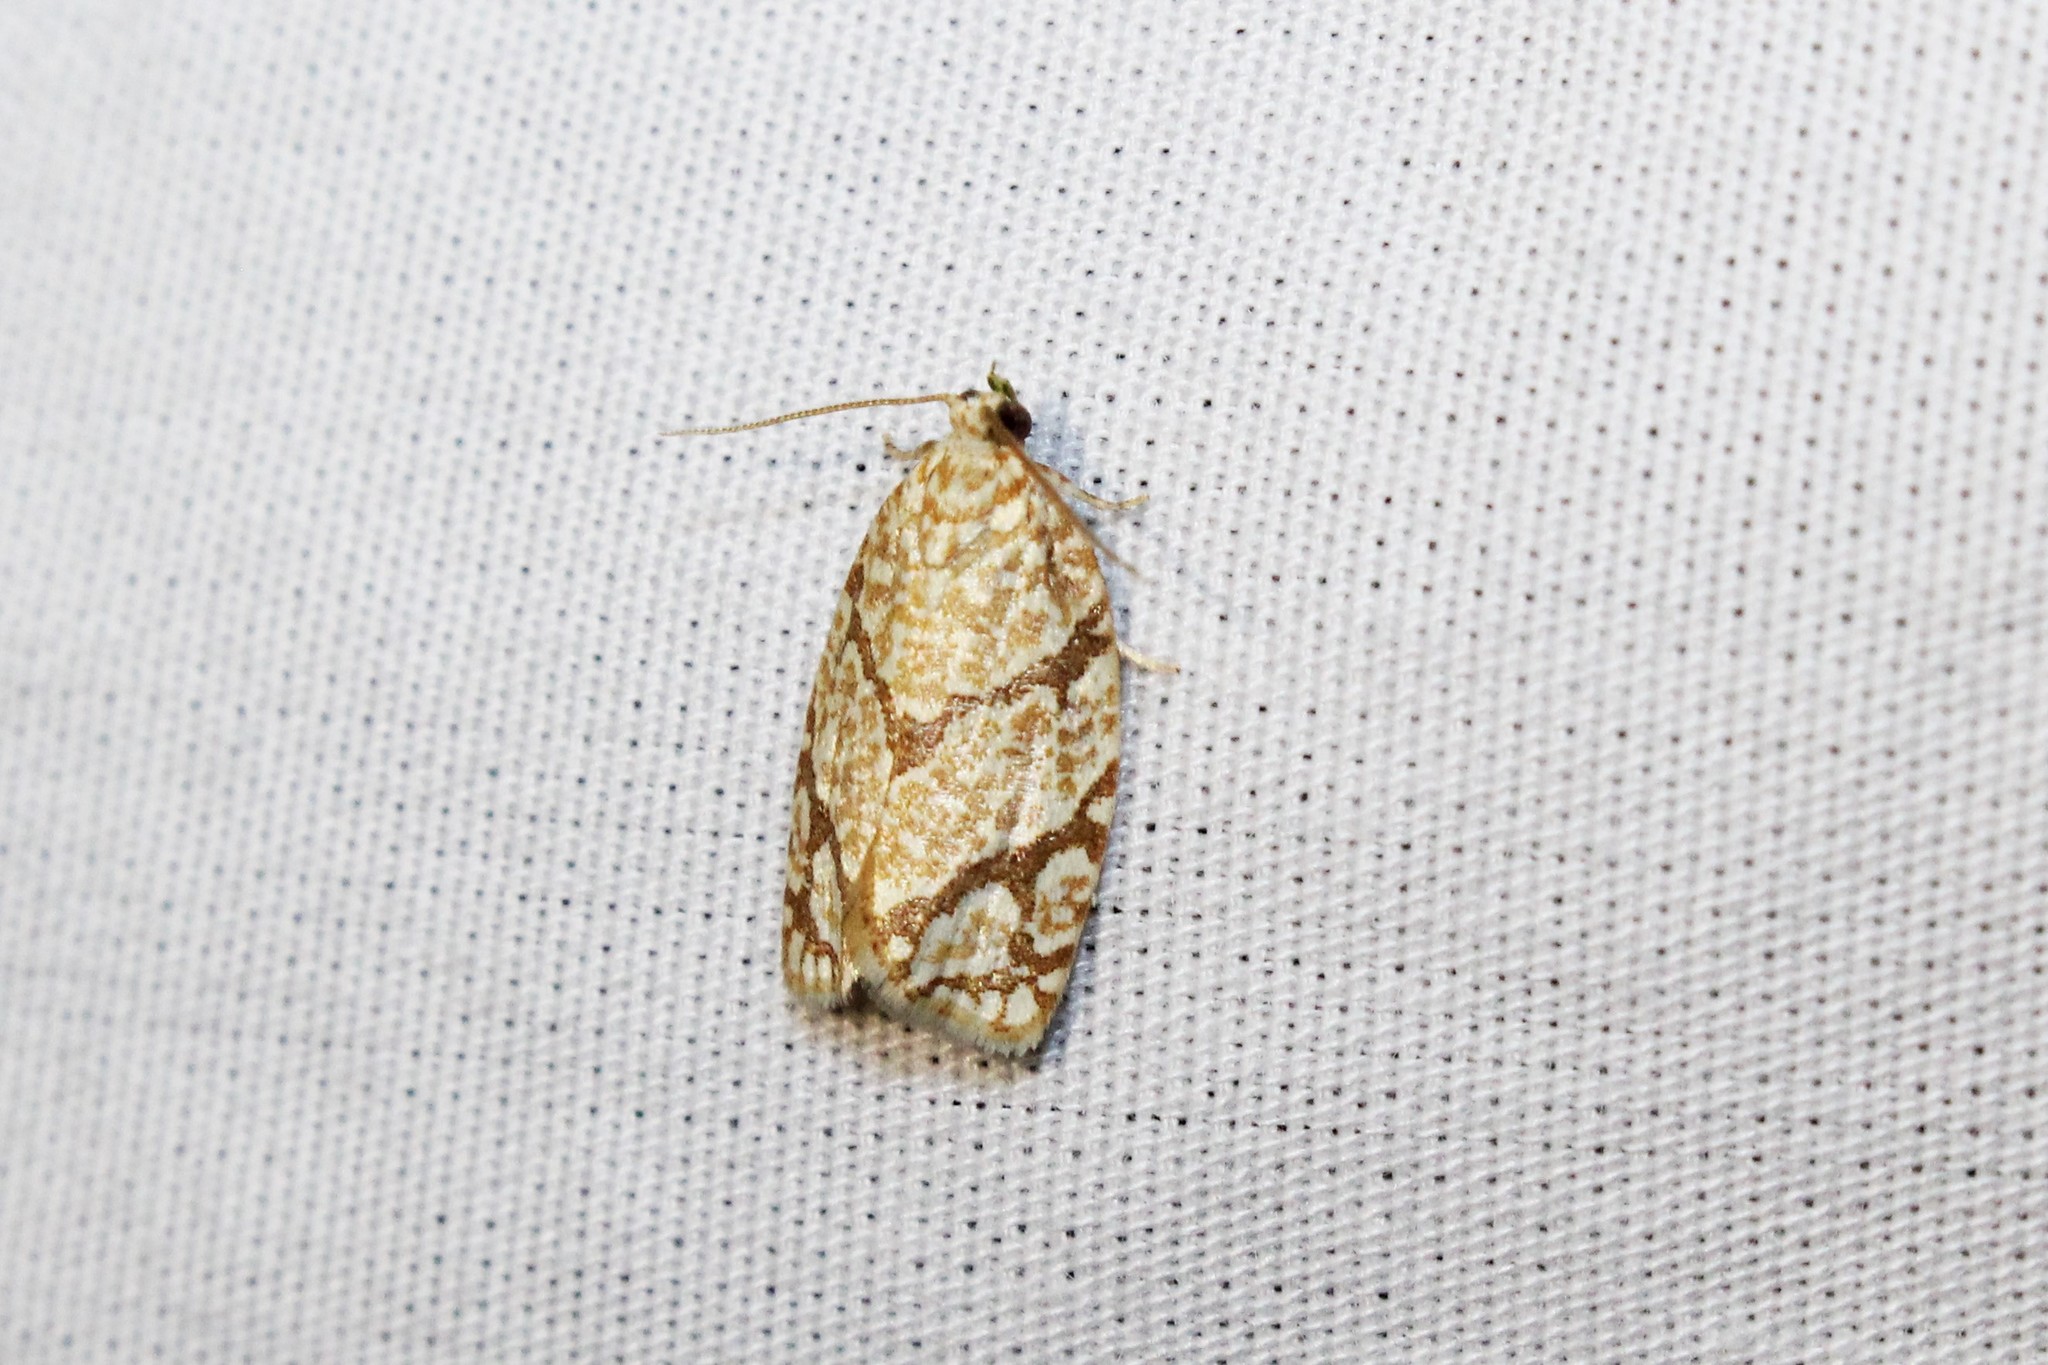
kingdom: Animalia
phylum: Arthropoda
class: Insecta
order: Lepidoptera
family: Tortricidae
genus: Argyrotaenia
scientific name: Argyrotaenia quercifoliana
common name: Yellow-winged oak leafroller moth
